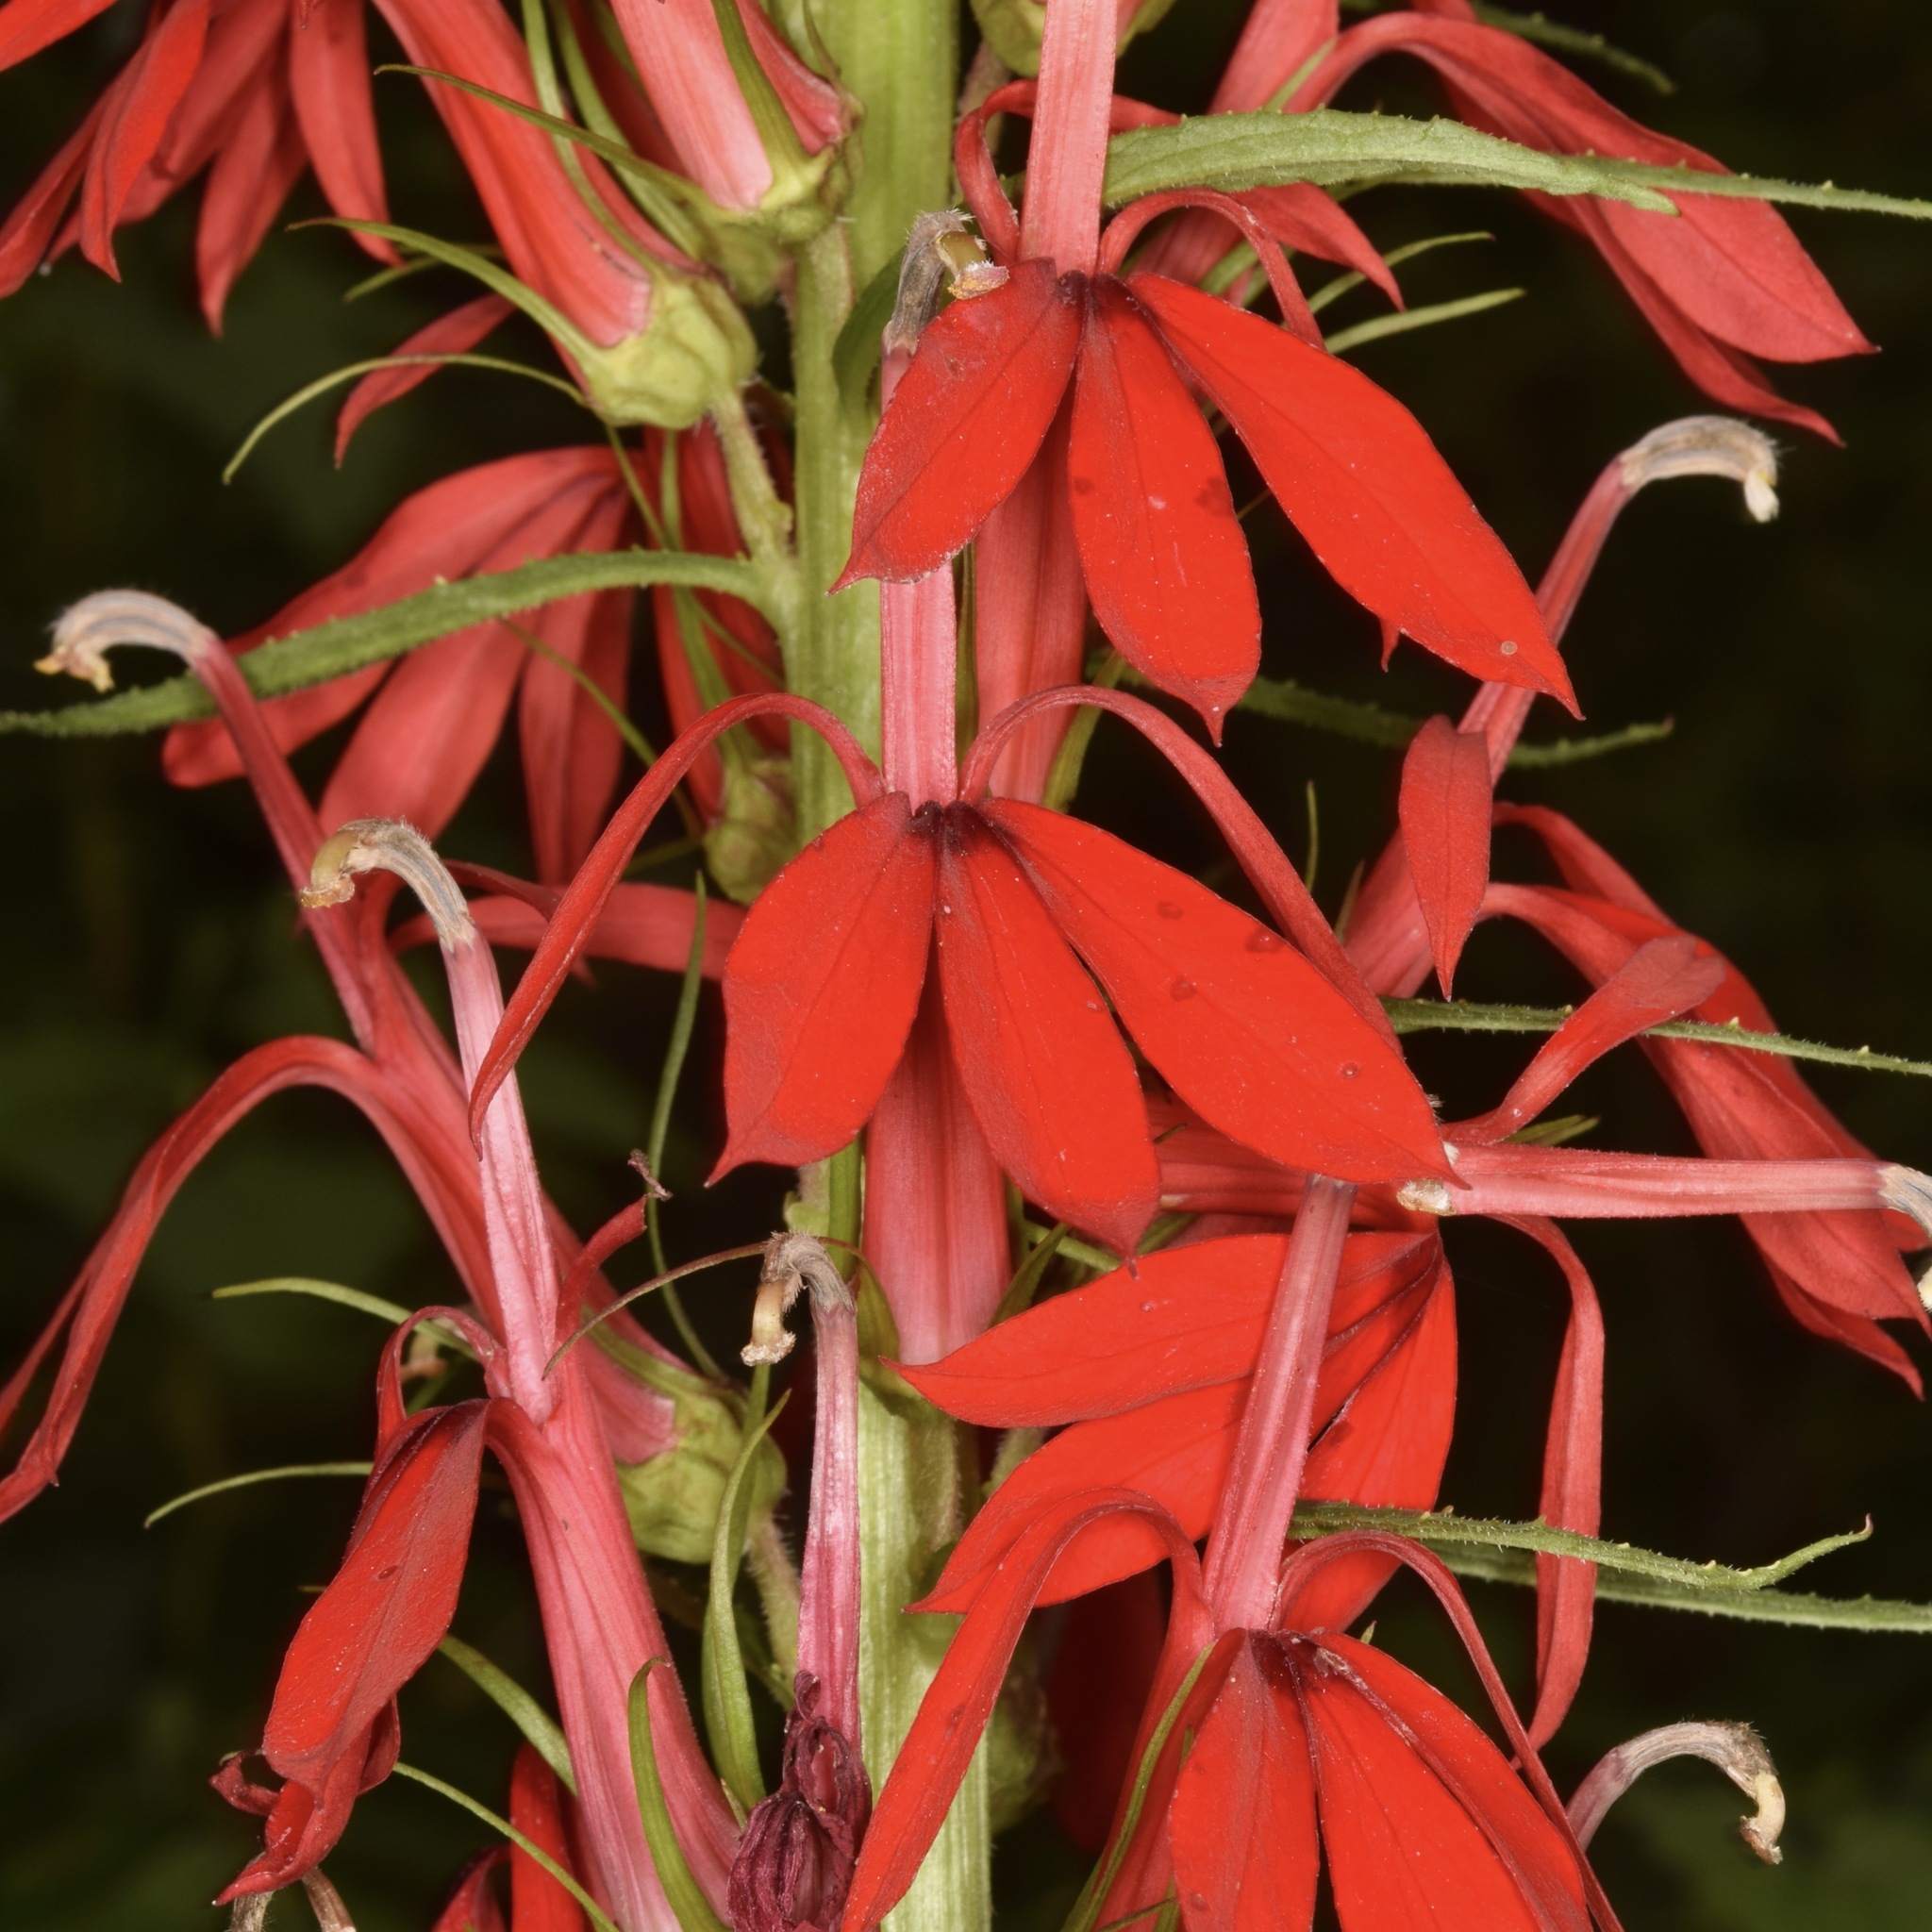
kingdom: Plantae
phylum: Tracheophyta
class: Magnoliopsida
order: Asterales
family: Campanulaceae
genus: Lobelia
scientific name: Lobelia cardinalis
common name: Cardinal flower
